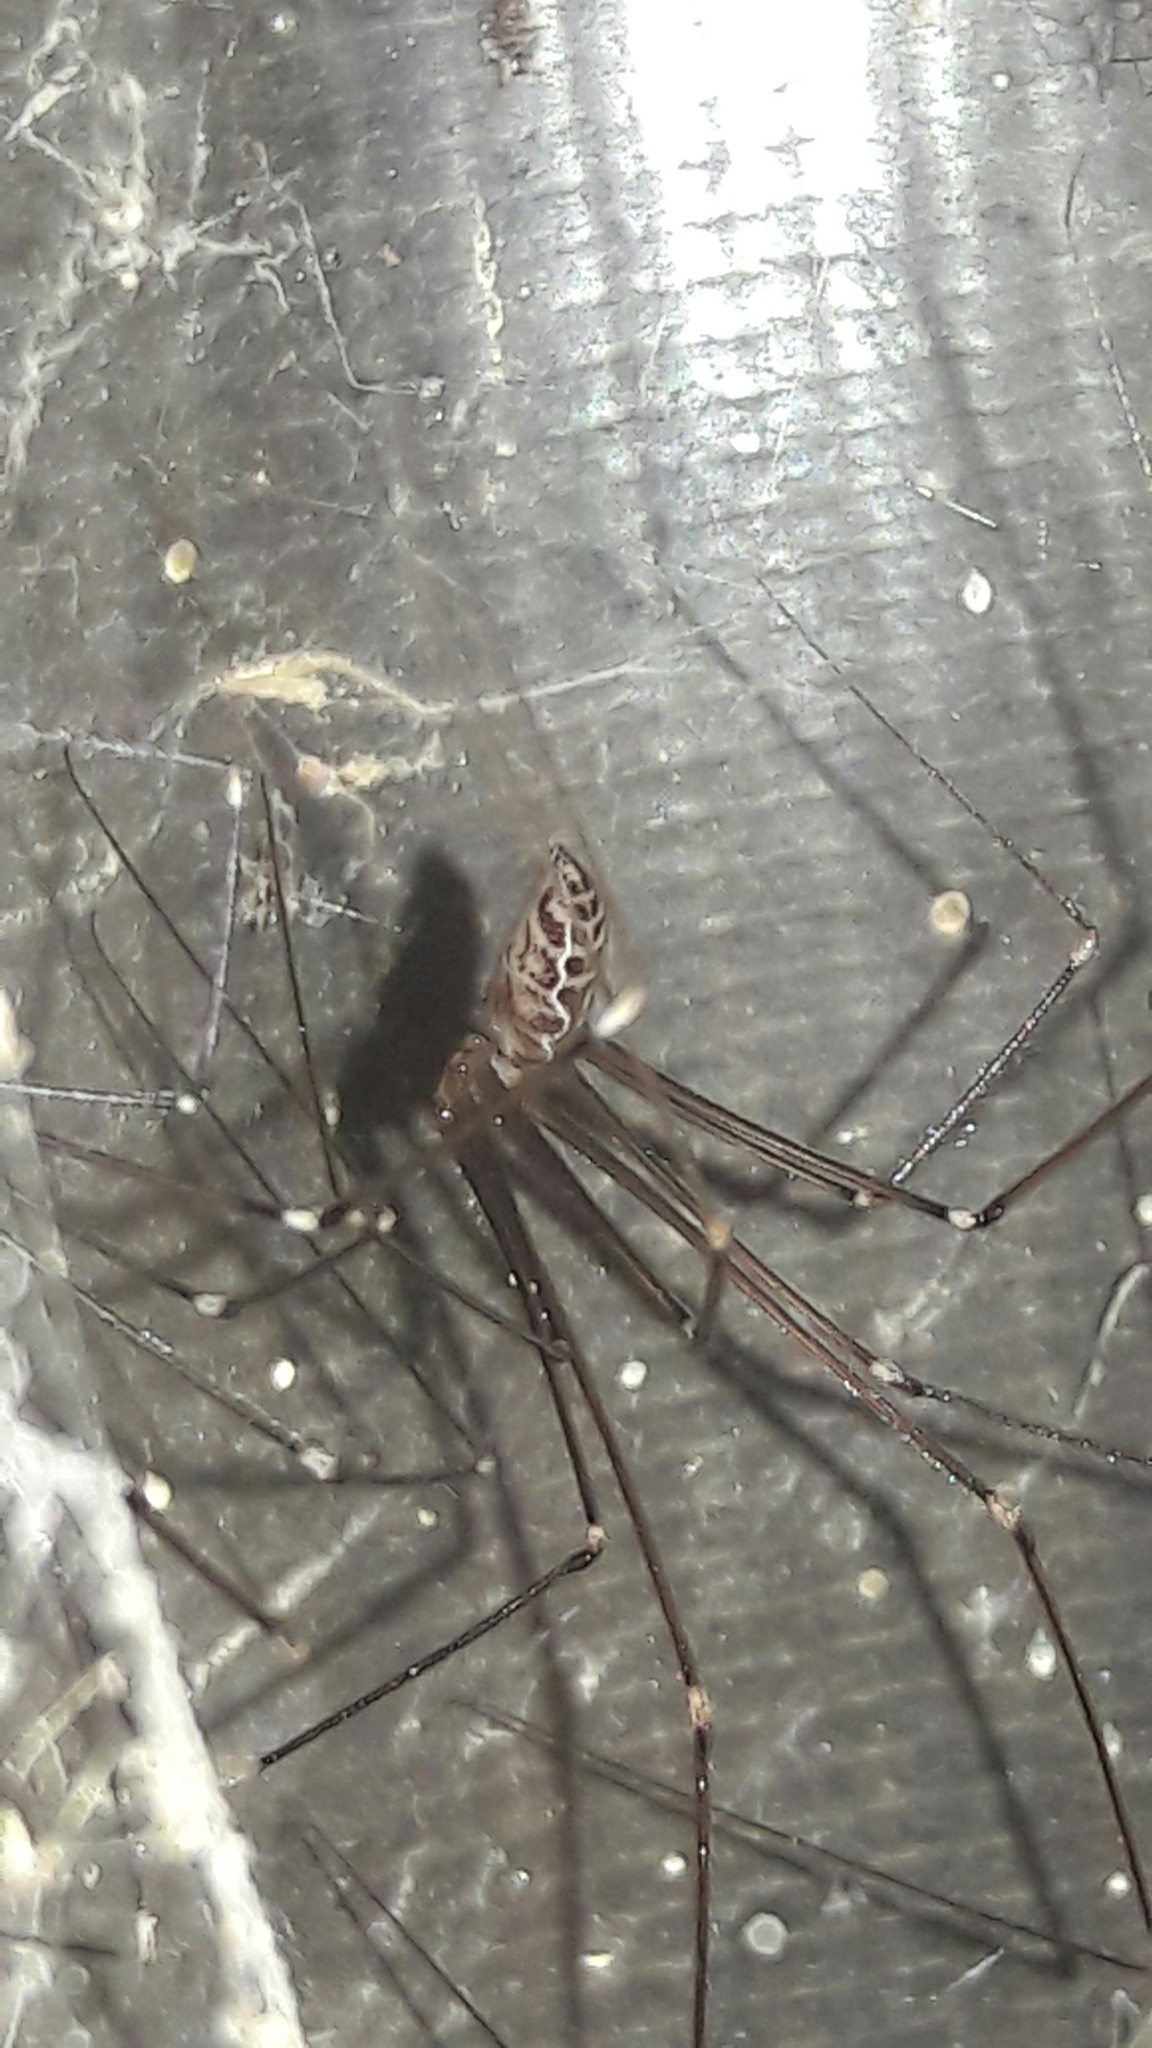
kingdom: Animalia
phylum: Arthropoda
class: Arachnida
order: Araneae
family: Pholcidae
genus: Smeringopus
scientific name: Smeringopus pallidus
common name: Cellar spider
